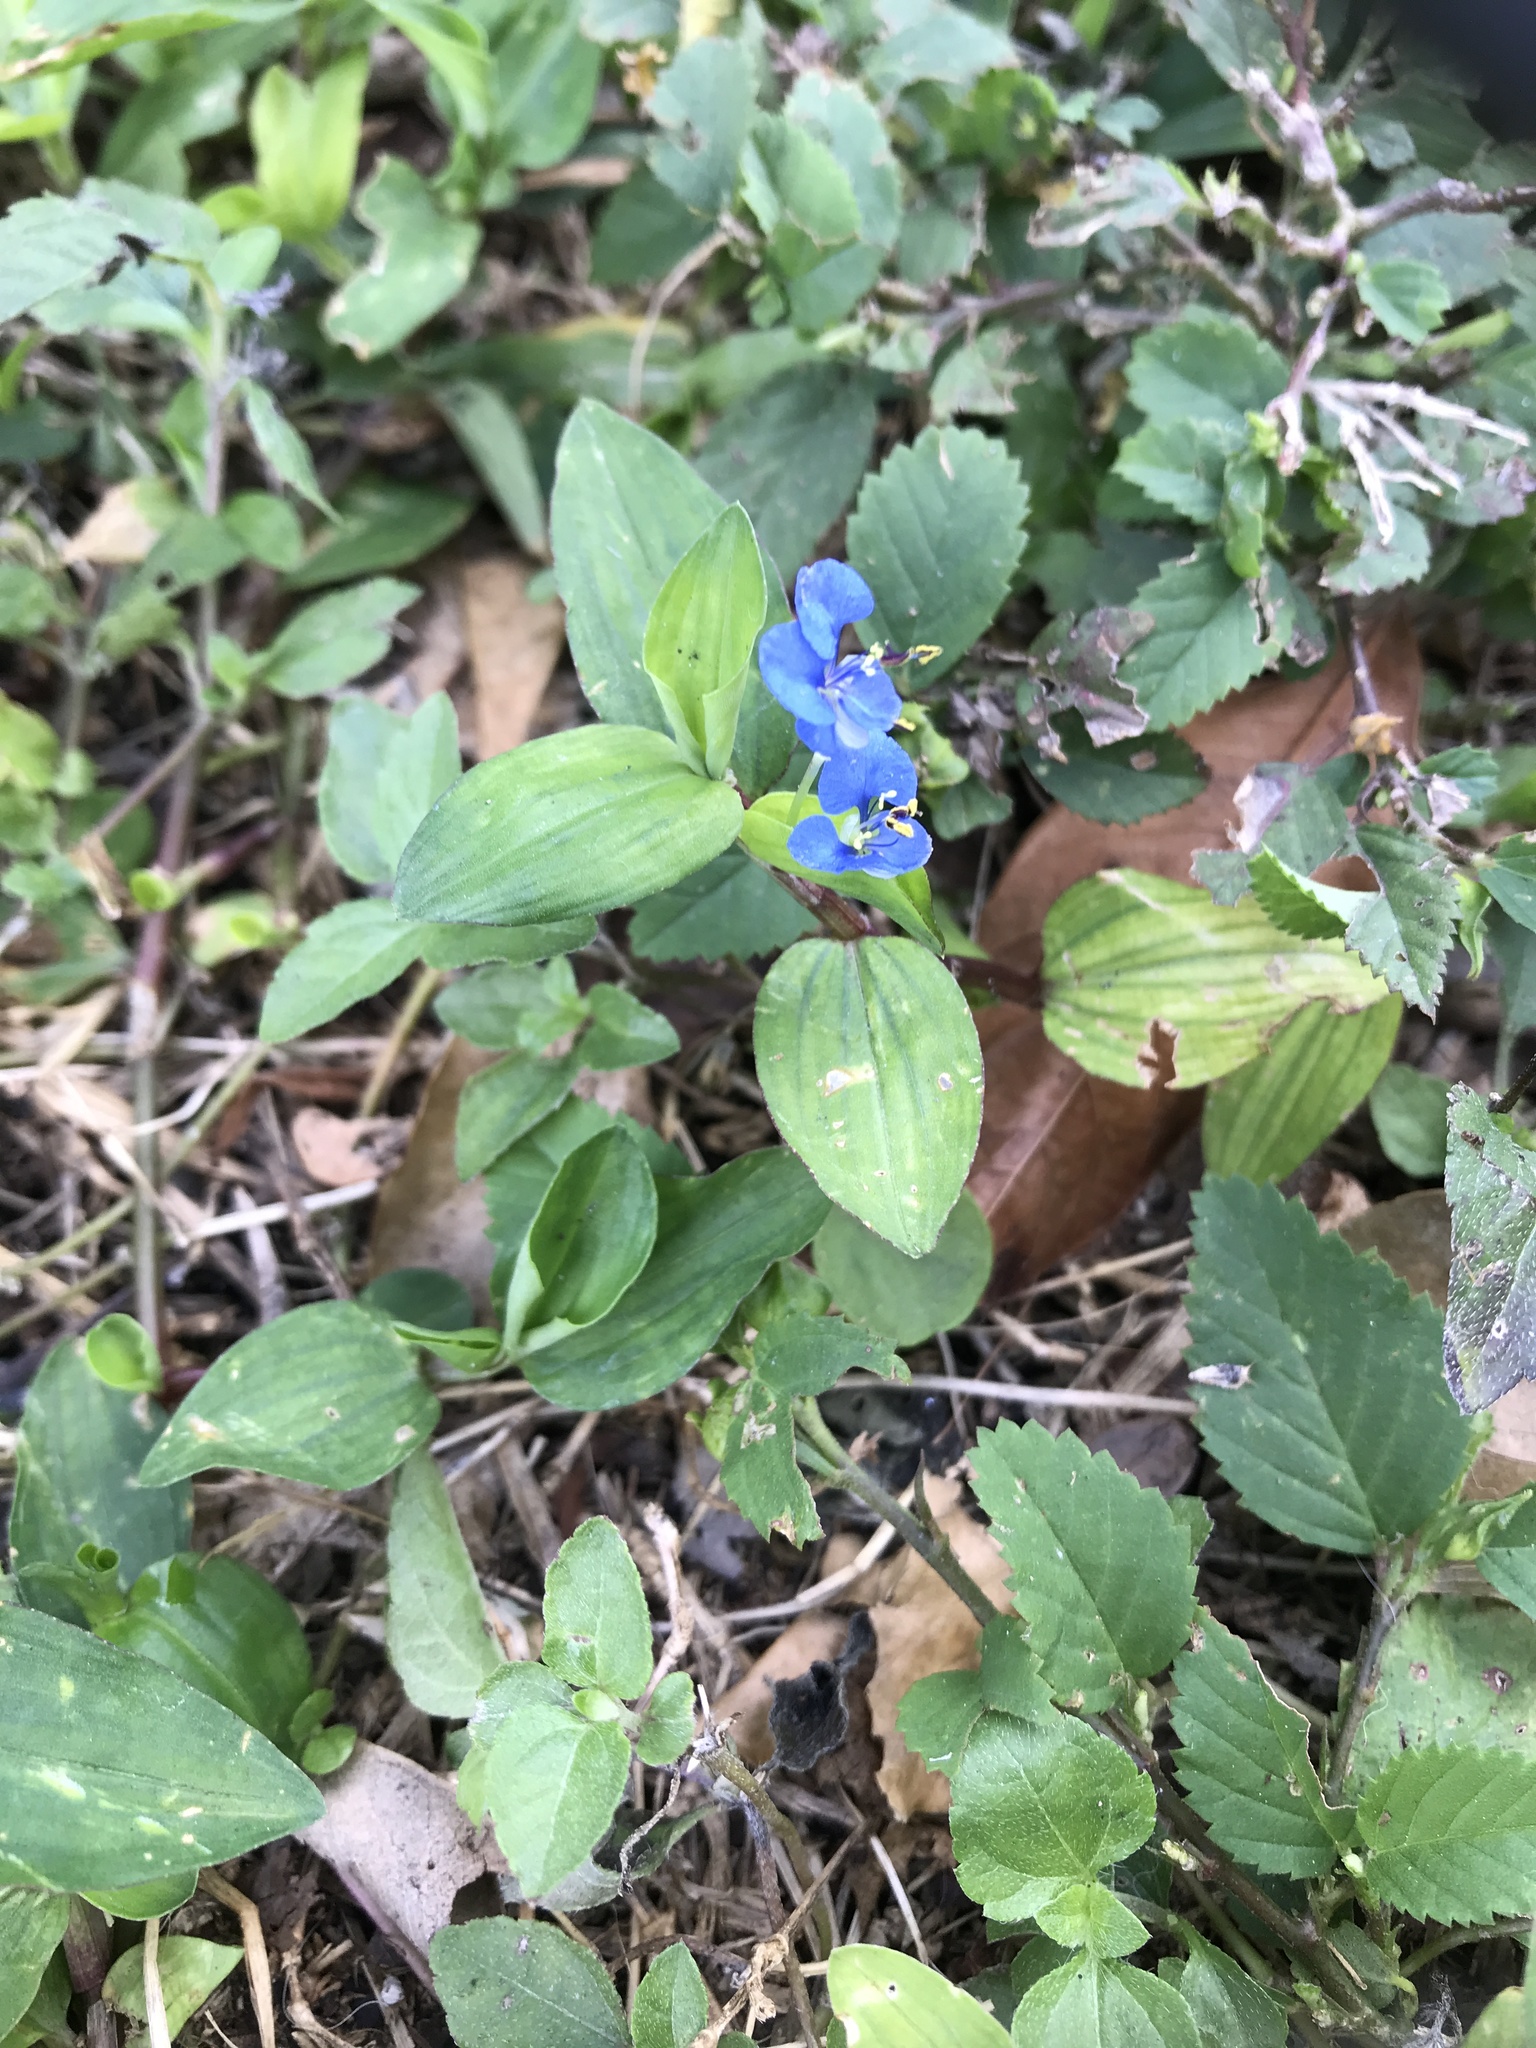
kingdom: Plantae
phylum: Tracheophyta
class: Liliopsida
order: Commelinales
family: Commelinaceae
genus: Commelina
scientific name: Commelina diffusa
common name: Climbing dayflower
